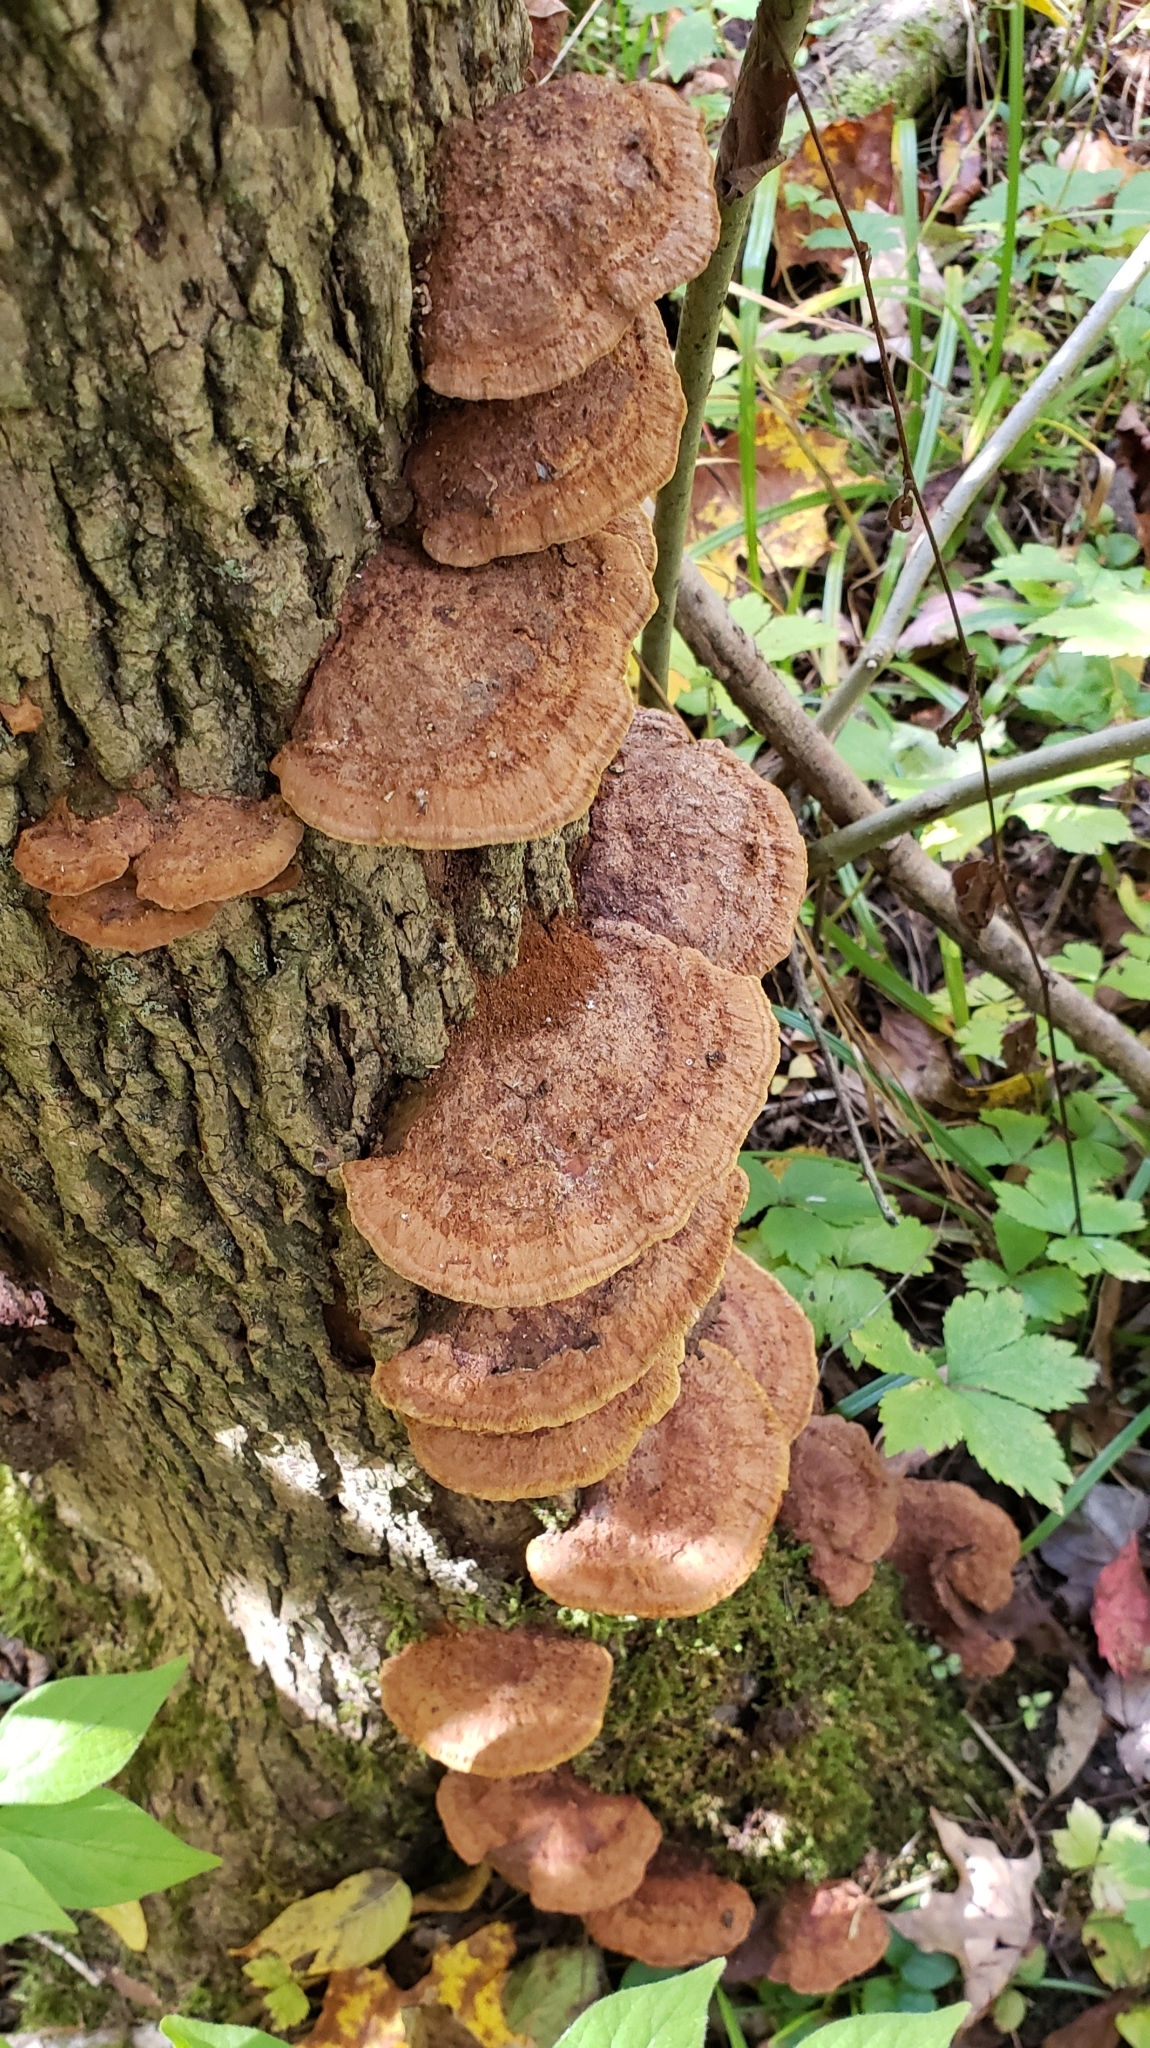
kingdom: Fungi
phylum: Basidiomycota
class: Agaricomycetes
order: Hymenochaetales
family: Hymenochaetaceae
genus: Phellinus
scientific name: Phellinus gilvus
